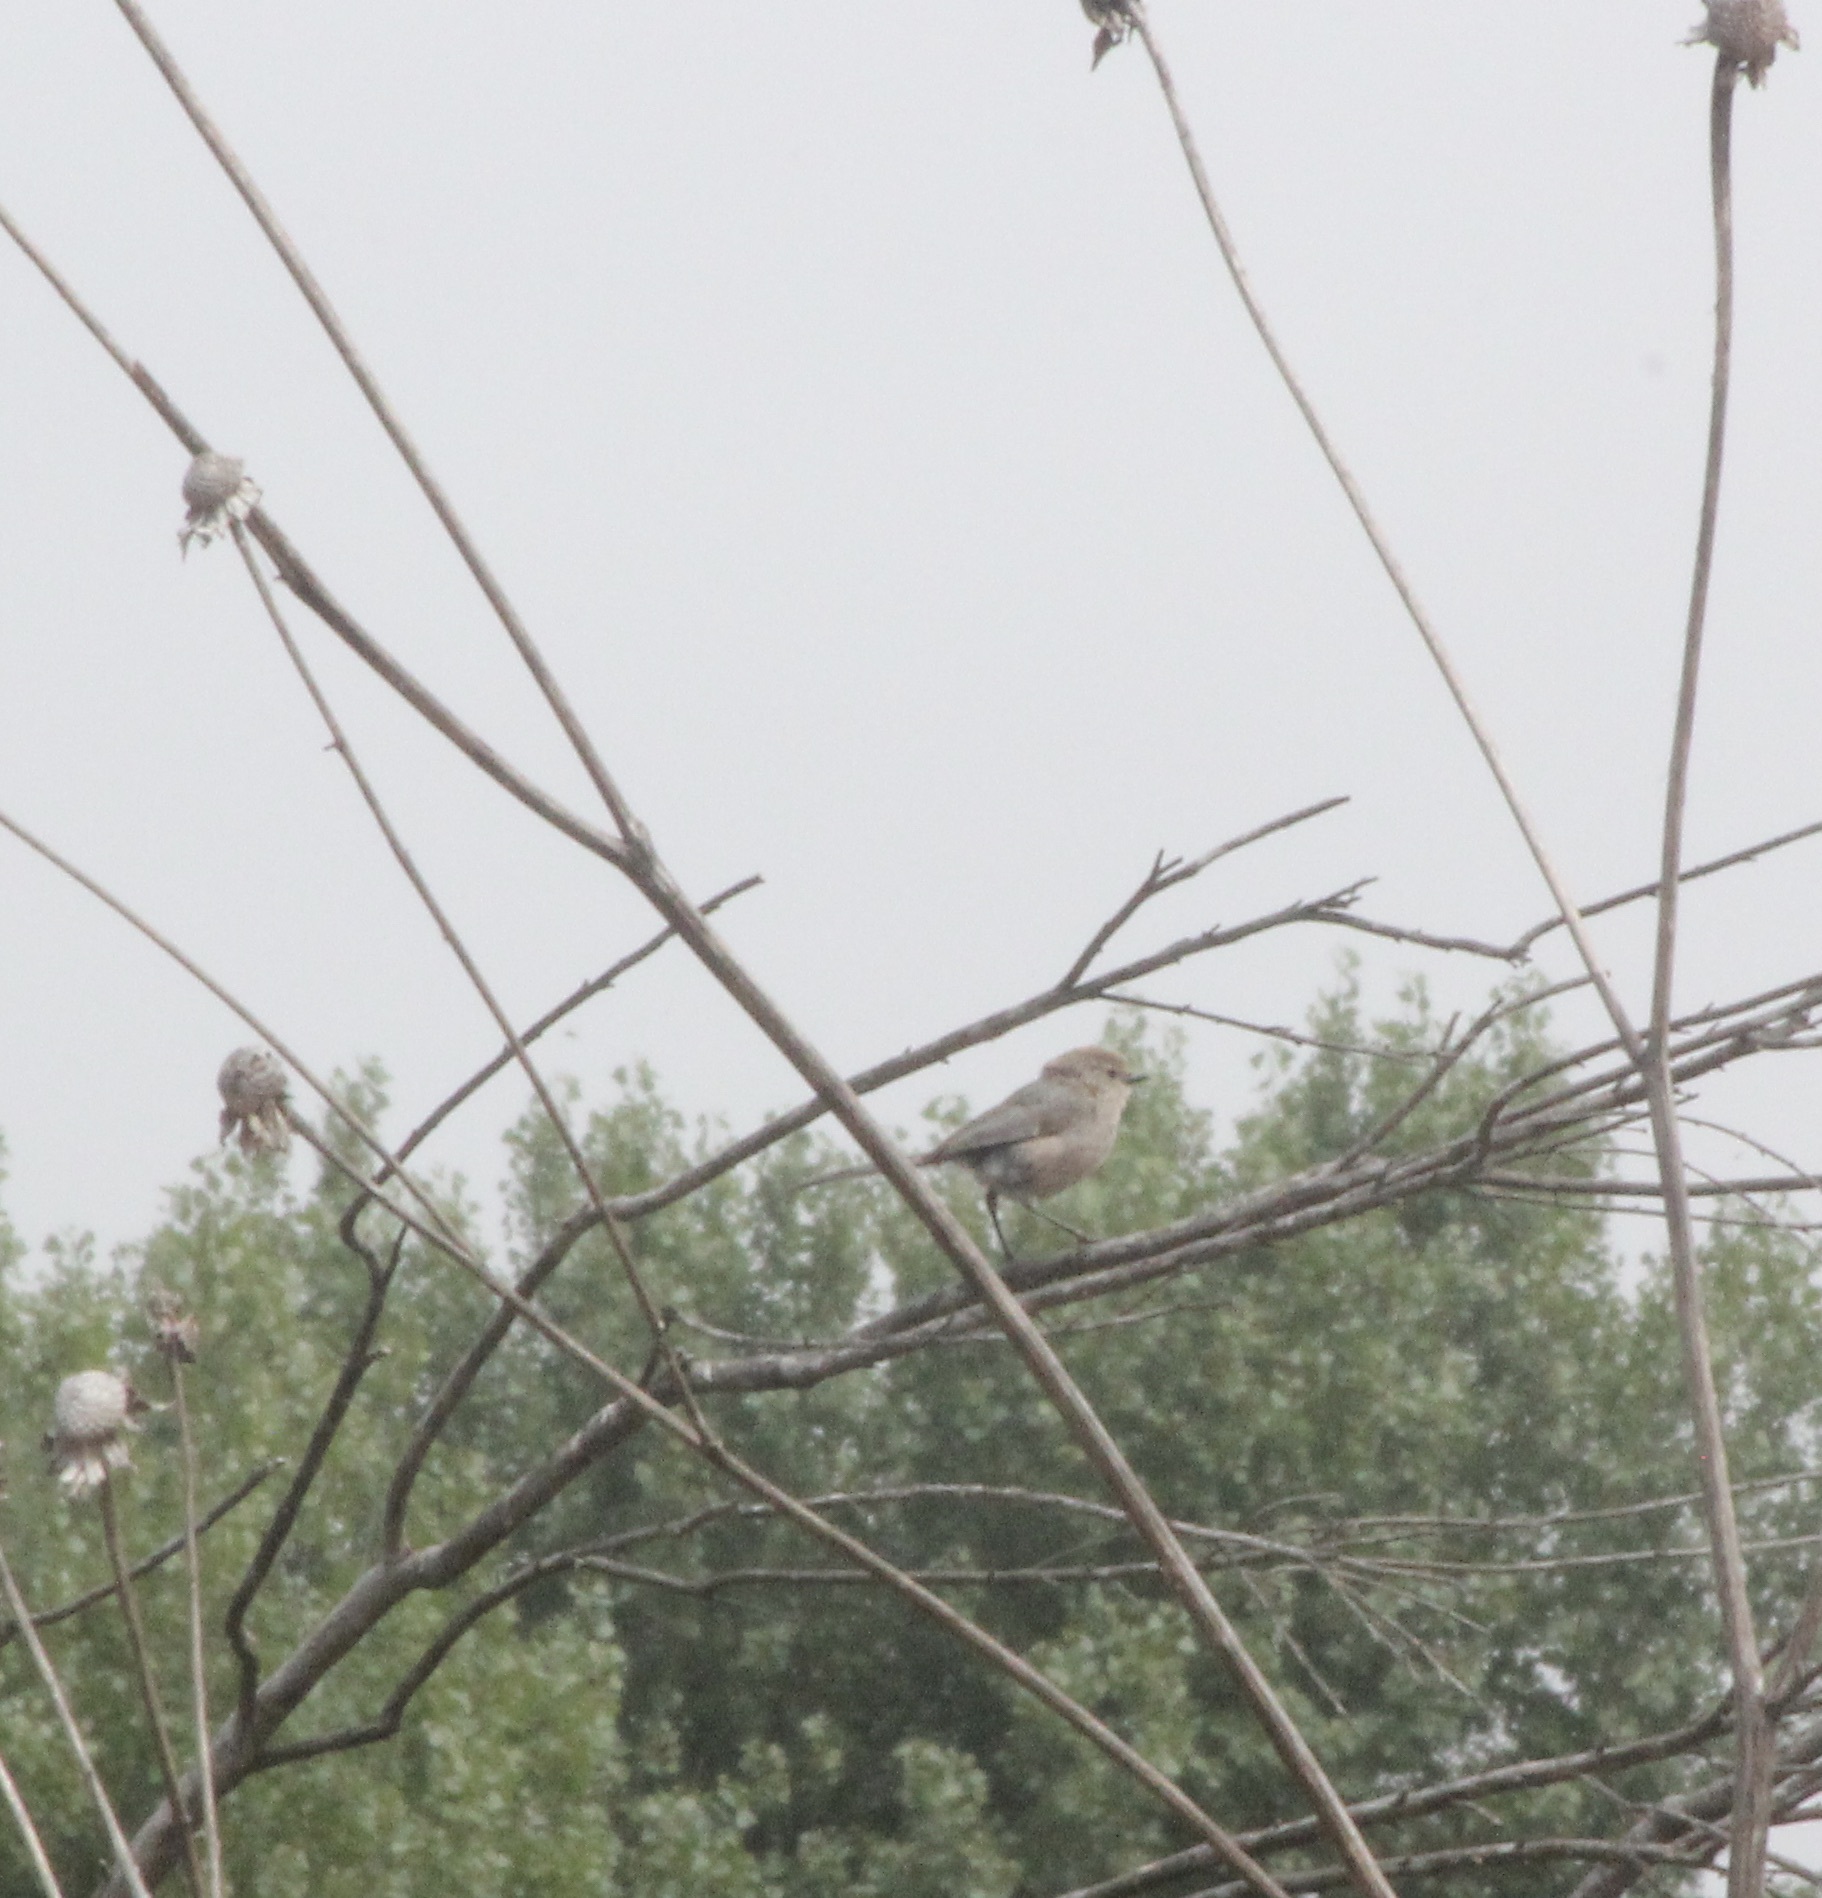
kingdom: Animalia
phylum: Chordata
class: Aves
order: Passeriformes
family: Aegithalidae
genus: Psaltriparus
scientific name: Psaltriparus minimus
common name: American bushtit
